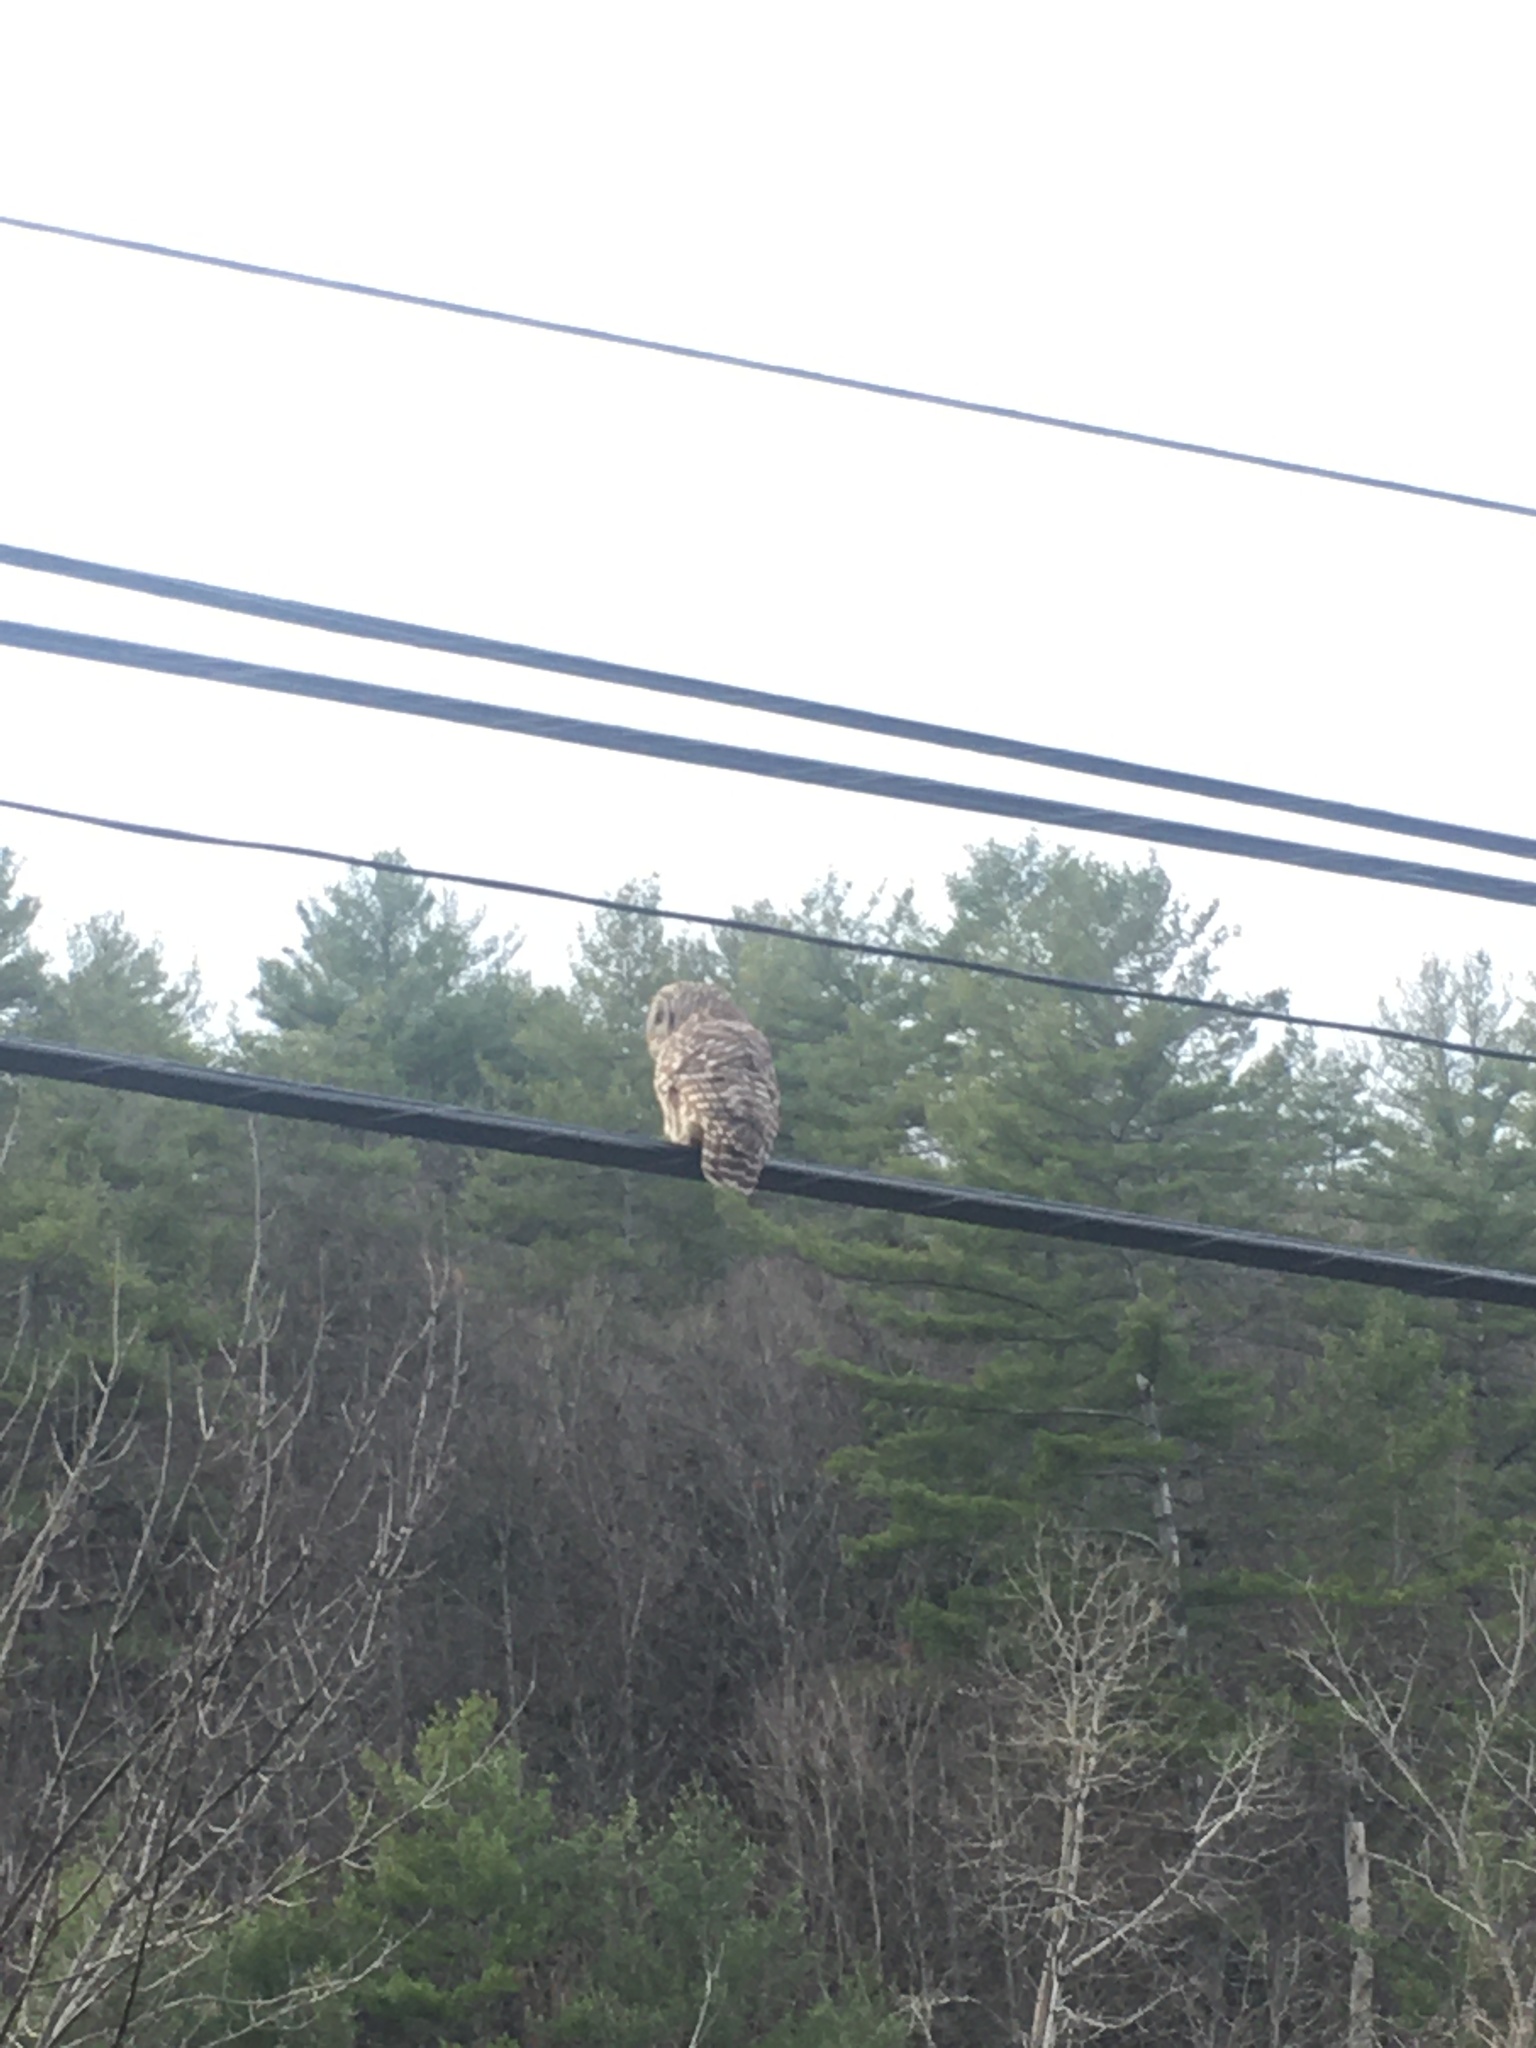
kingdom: Animalia
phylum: Chordata
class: Aves
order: Strigiformes
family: Strigidae
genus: Strix
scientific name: Strix varia
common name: Barred owl
